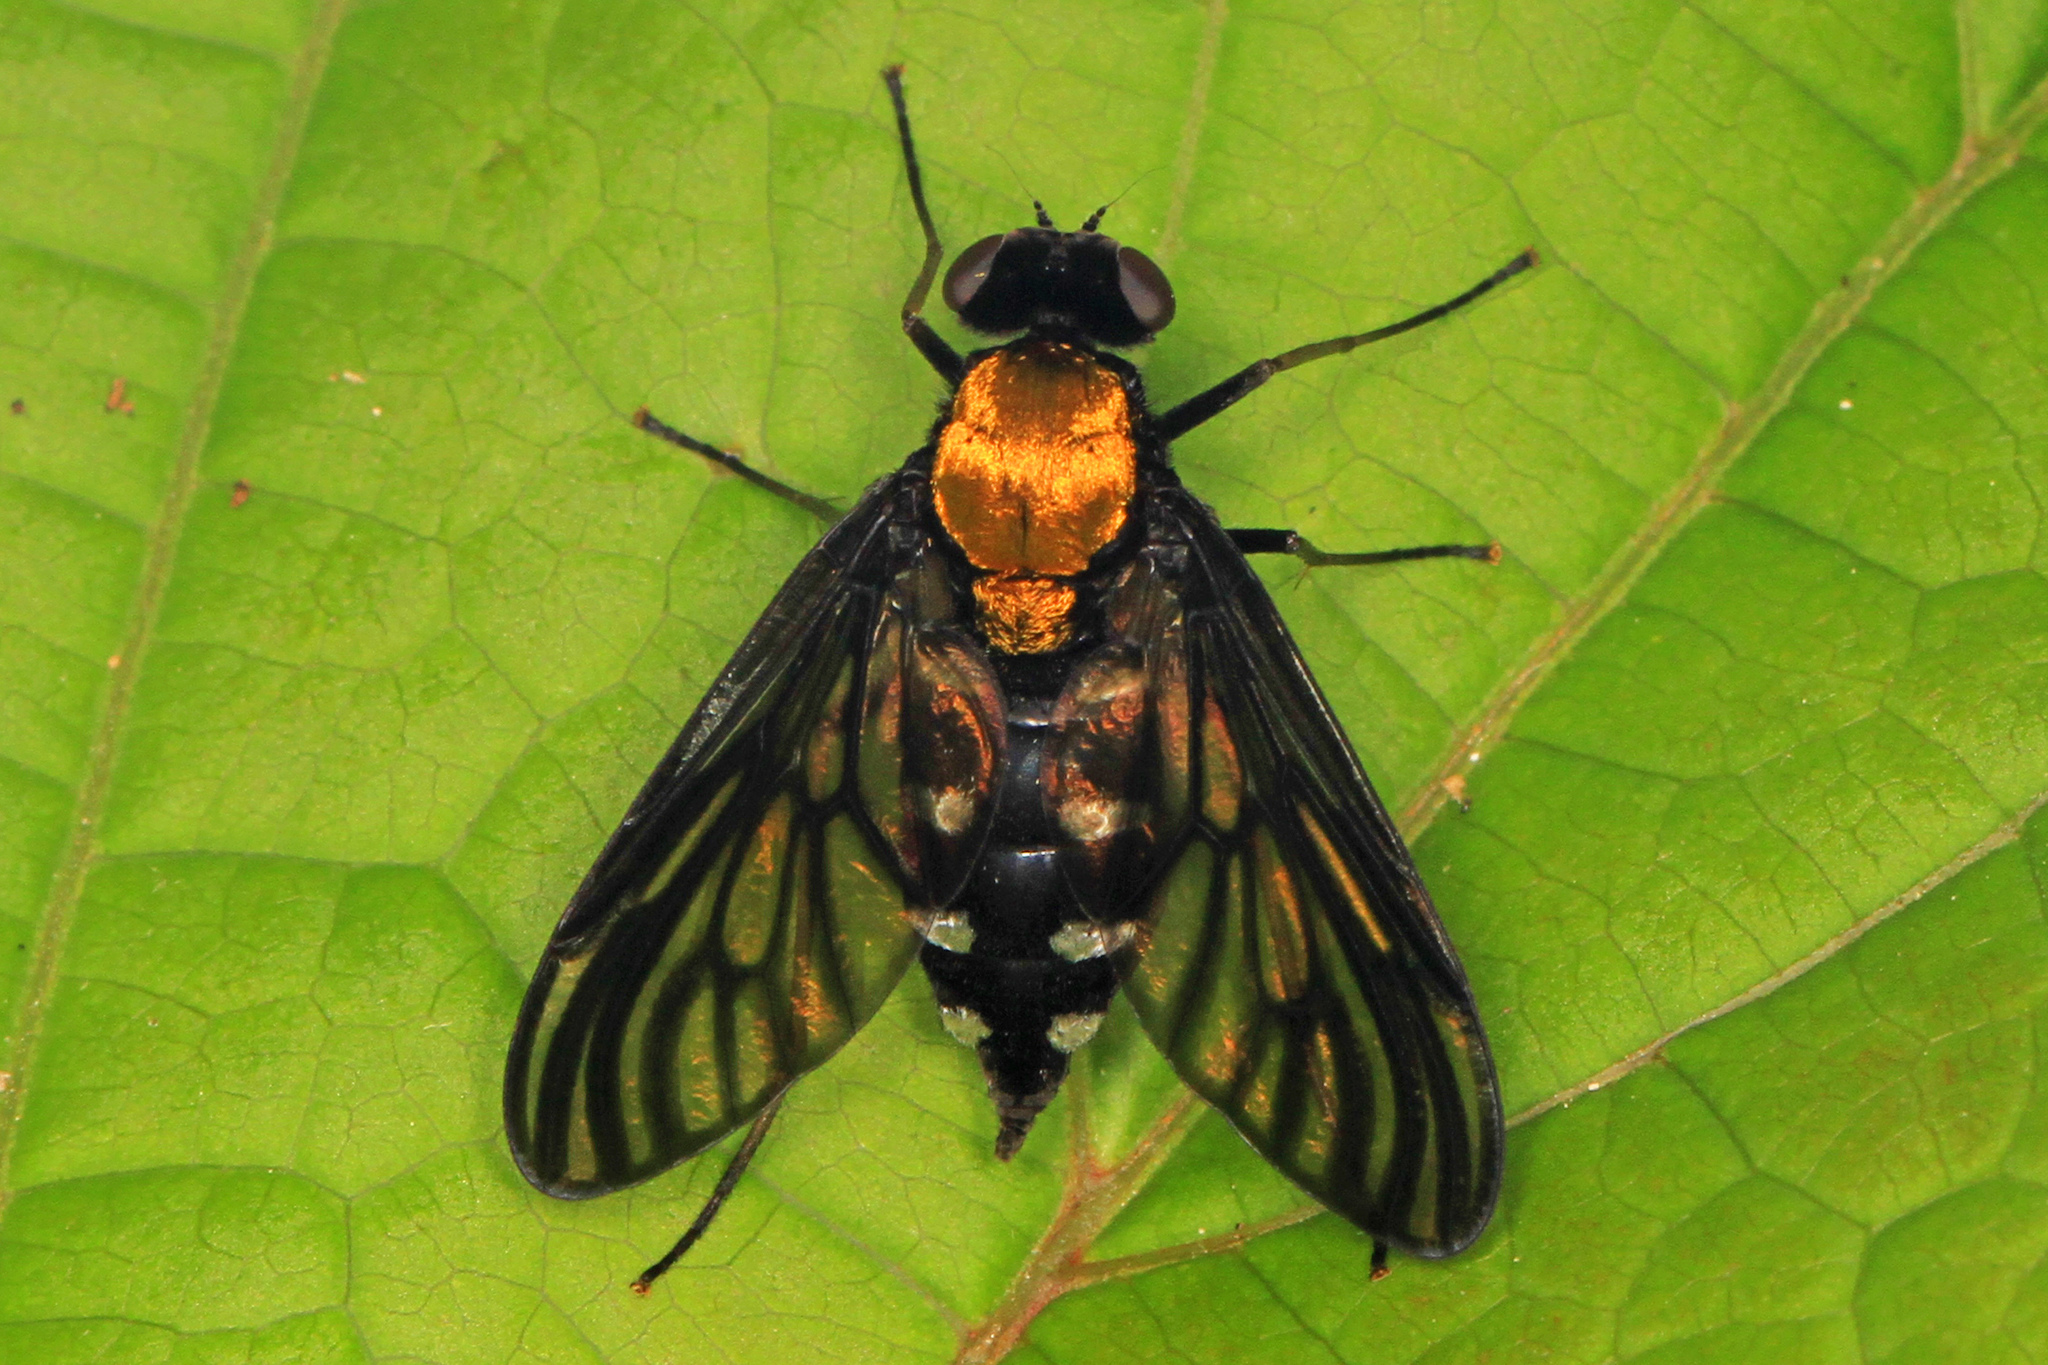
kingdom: Animalia
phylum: Arthropoda
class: Insecta
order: Diptera
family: Rhagionidae
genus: Chrysopilus
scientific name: Chrysopilus thoracicus
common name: Golden-backed snipe fly
